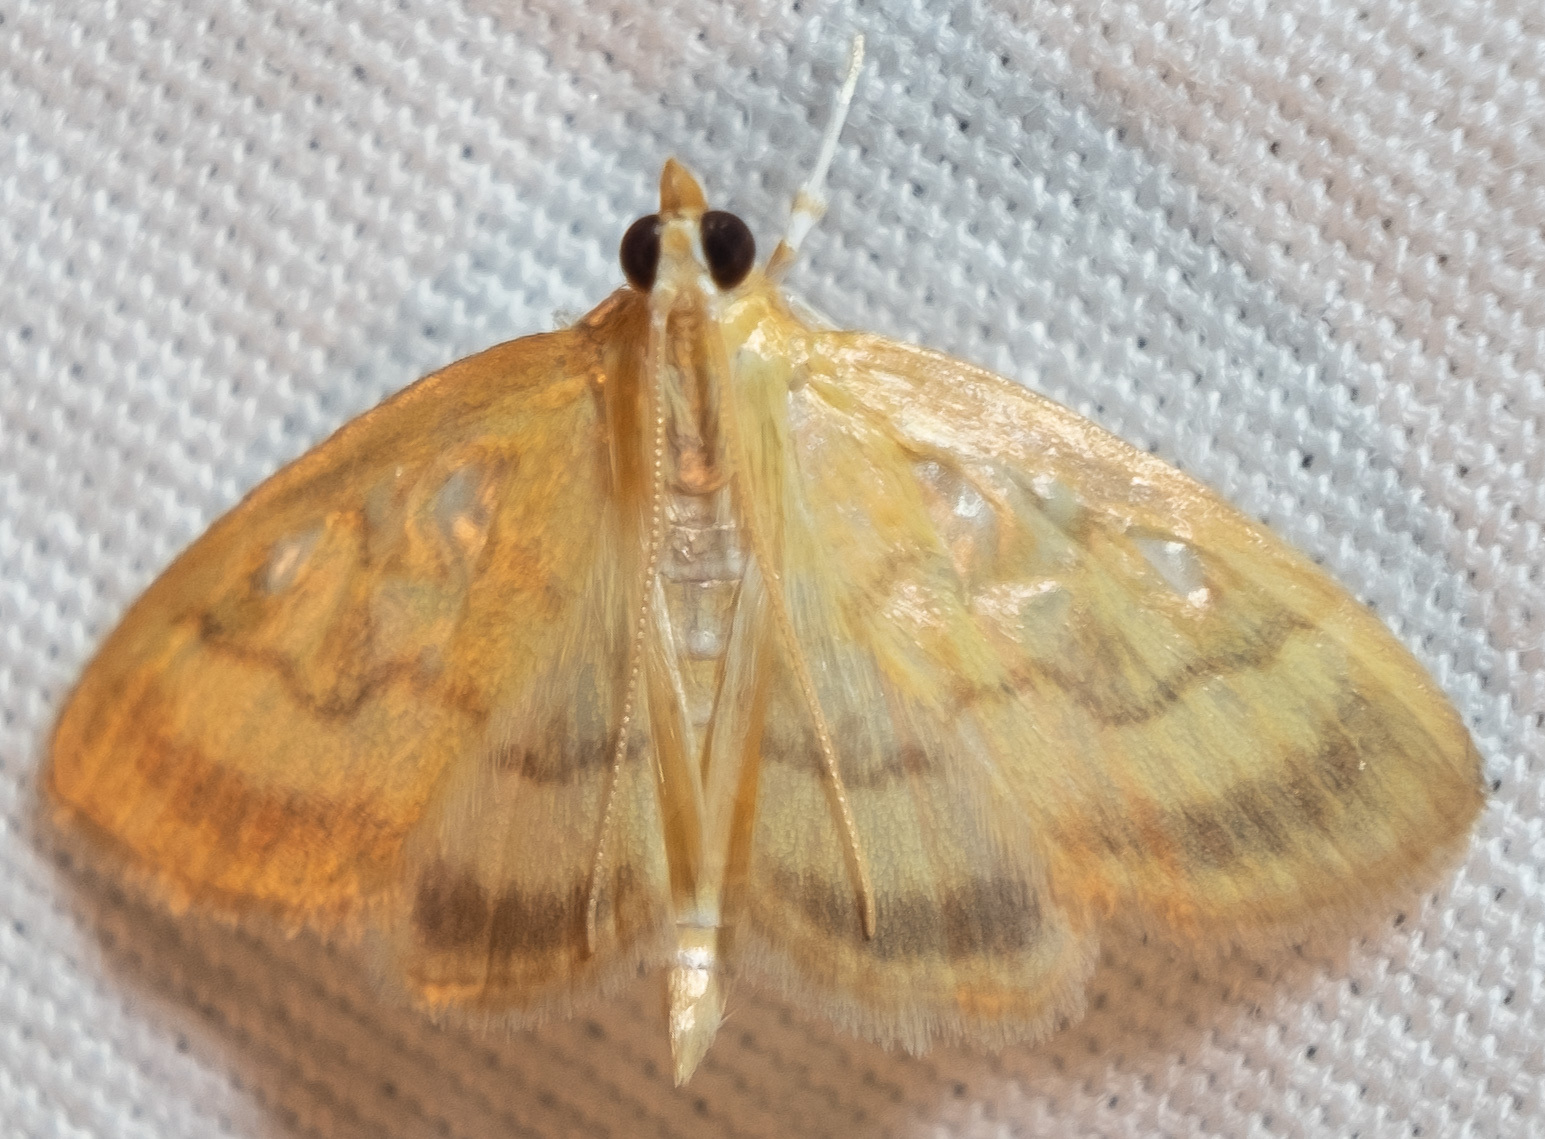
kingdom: Animalia
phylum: Arthropoda
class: Insecta
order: Lepidoptera
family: Crambidae
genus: Crocidophora
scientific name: Crocidophora tuberculalis
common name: Pale-winged crocidiphora moth
